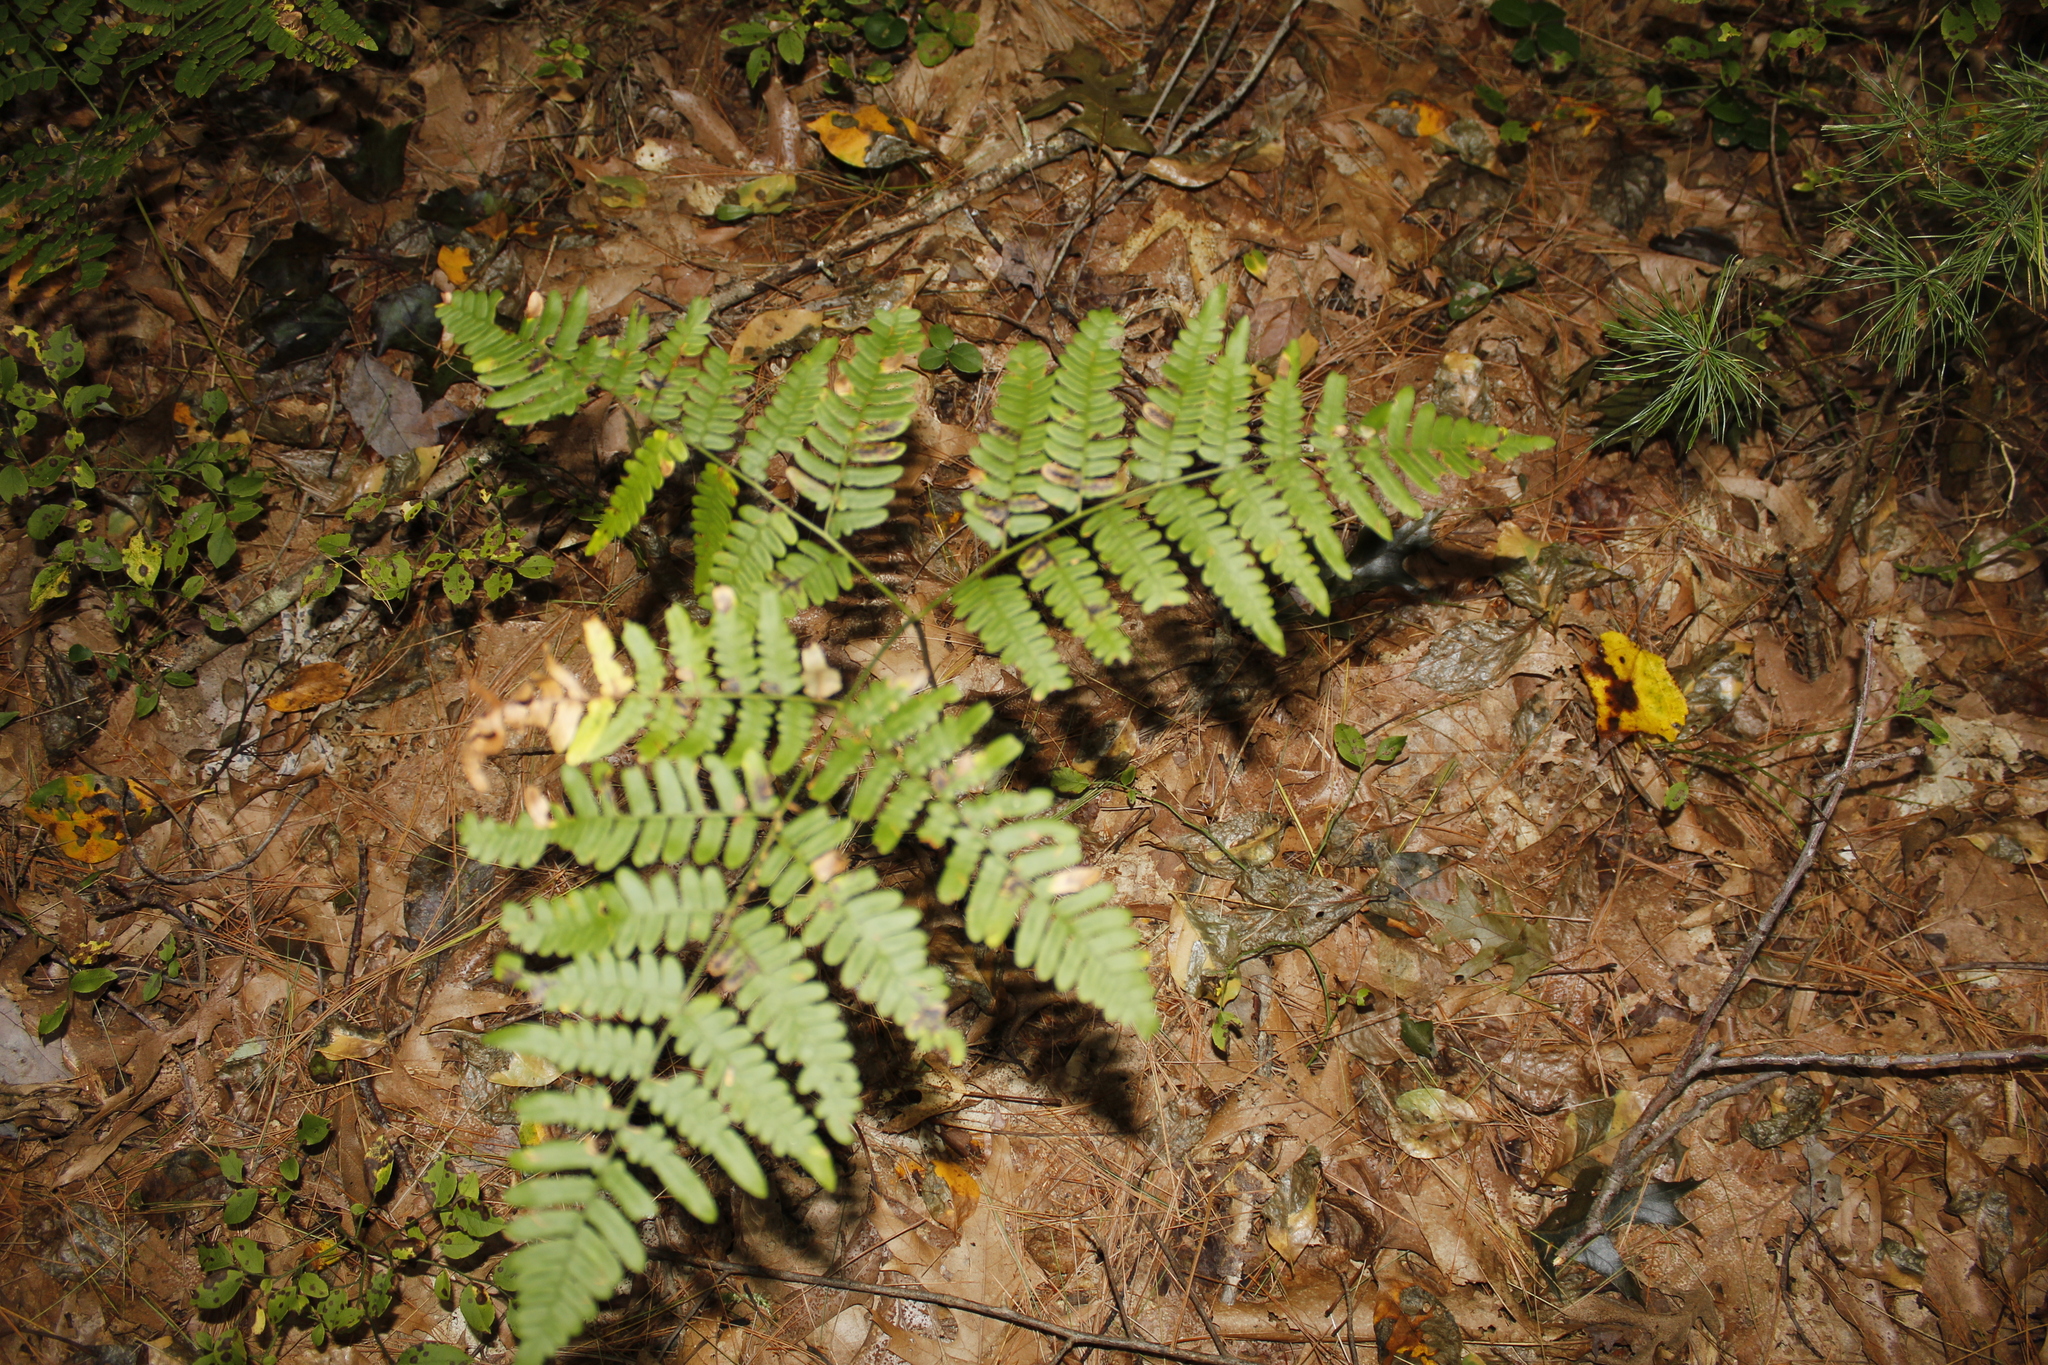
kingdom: Plantae
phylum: Tracheophyta
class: Polypodiopsida
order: Polypodiales
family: Dennstaedtiaceae
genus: Pteridium
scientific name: Pteridium aquilinum
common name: Bracken
